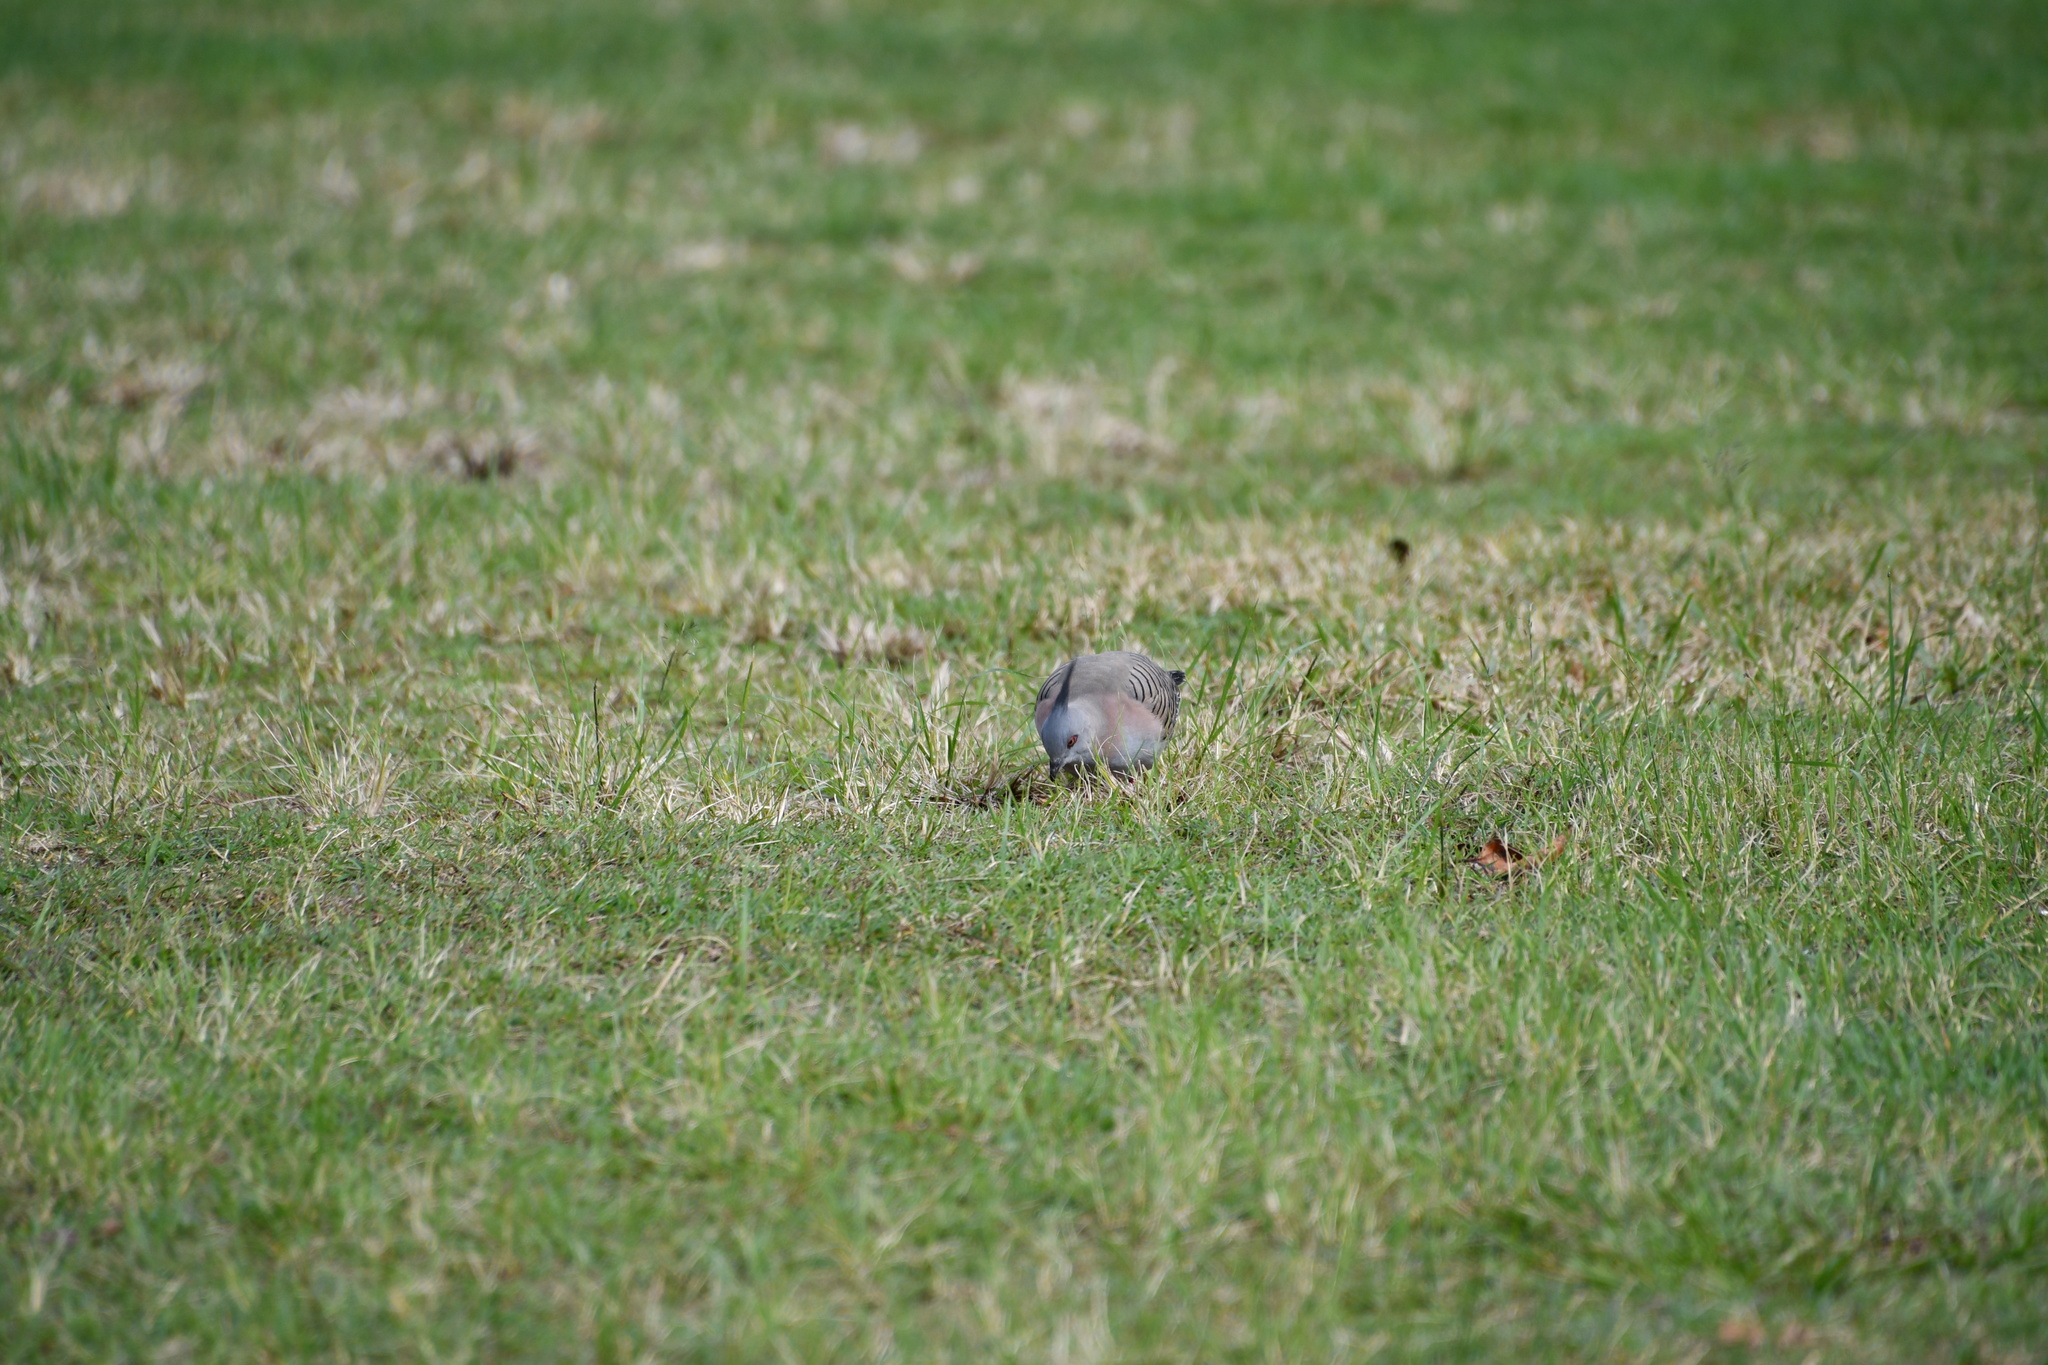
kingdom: Animalia
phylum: Chordata
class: Aves
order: Columbiformes
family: Columbidae
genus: Ocyphaps
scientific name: Ocyphaps lophotes
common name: Crested pigeon
